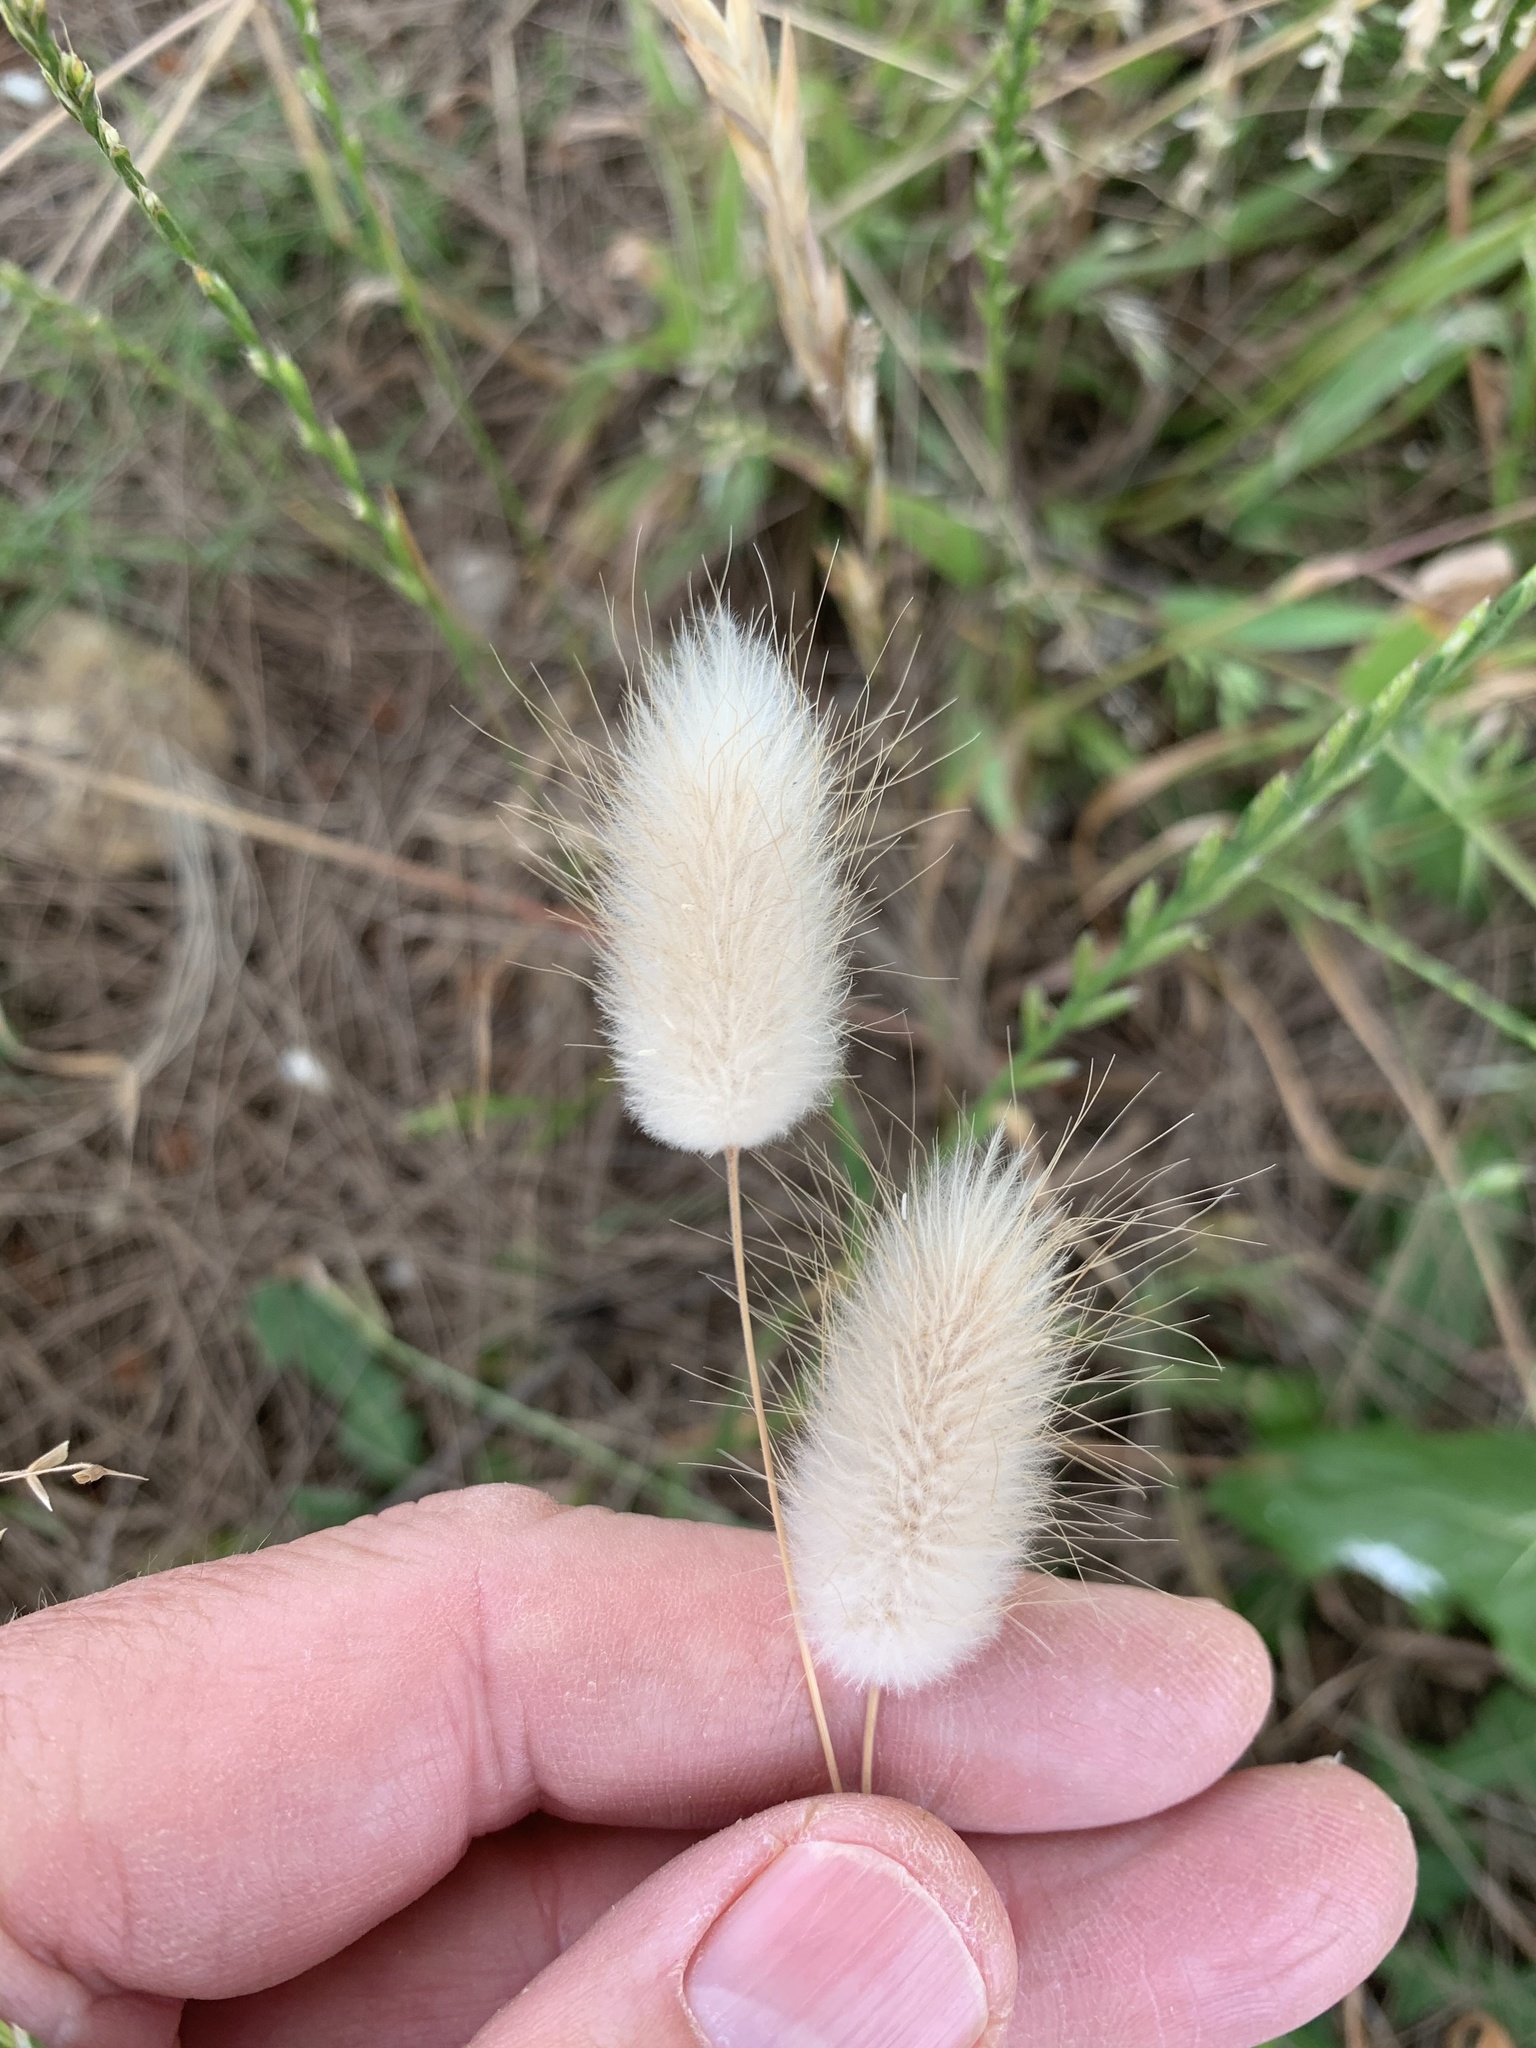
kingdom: Plantae
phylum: Tracheophyta
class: Liliopsida
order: Poales
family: Poaceae
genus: Lagurus
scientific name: Lagurus ovatus
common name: Hare's-tail
